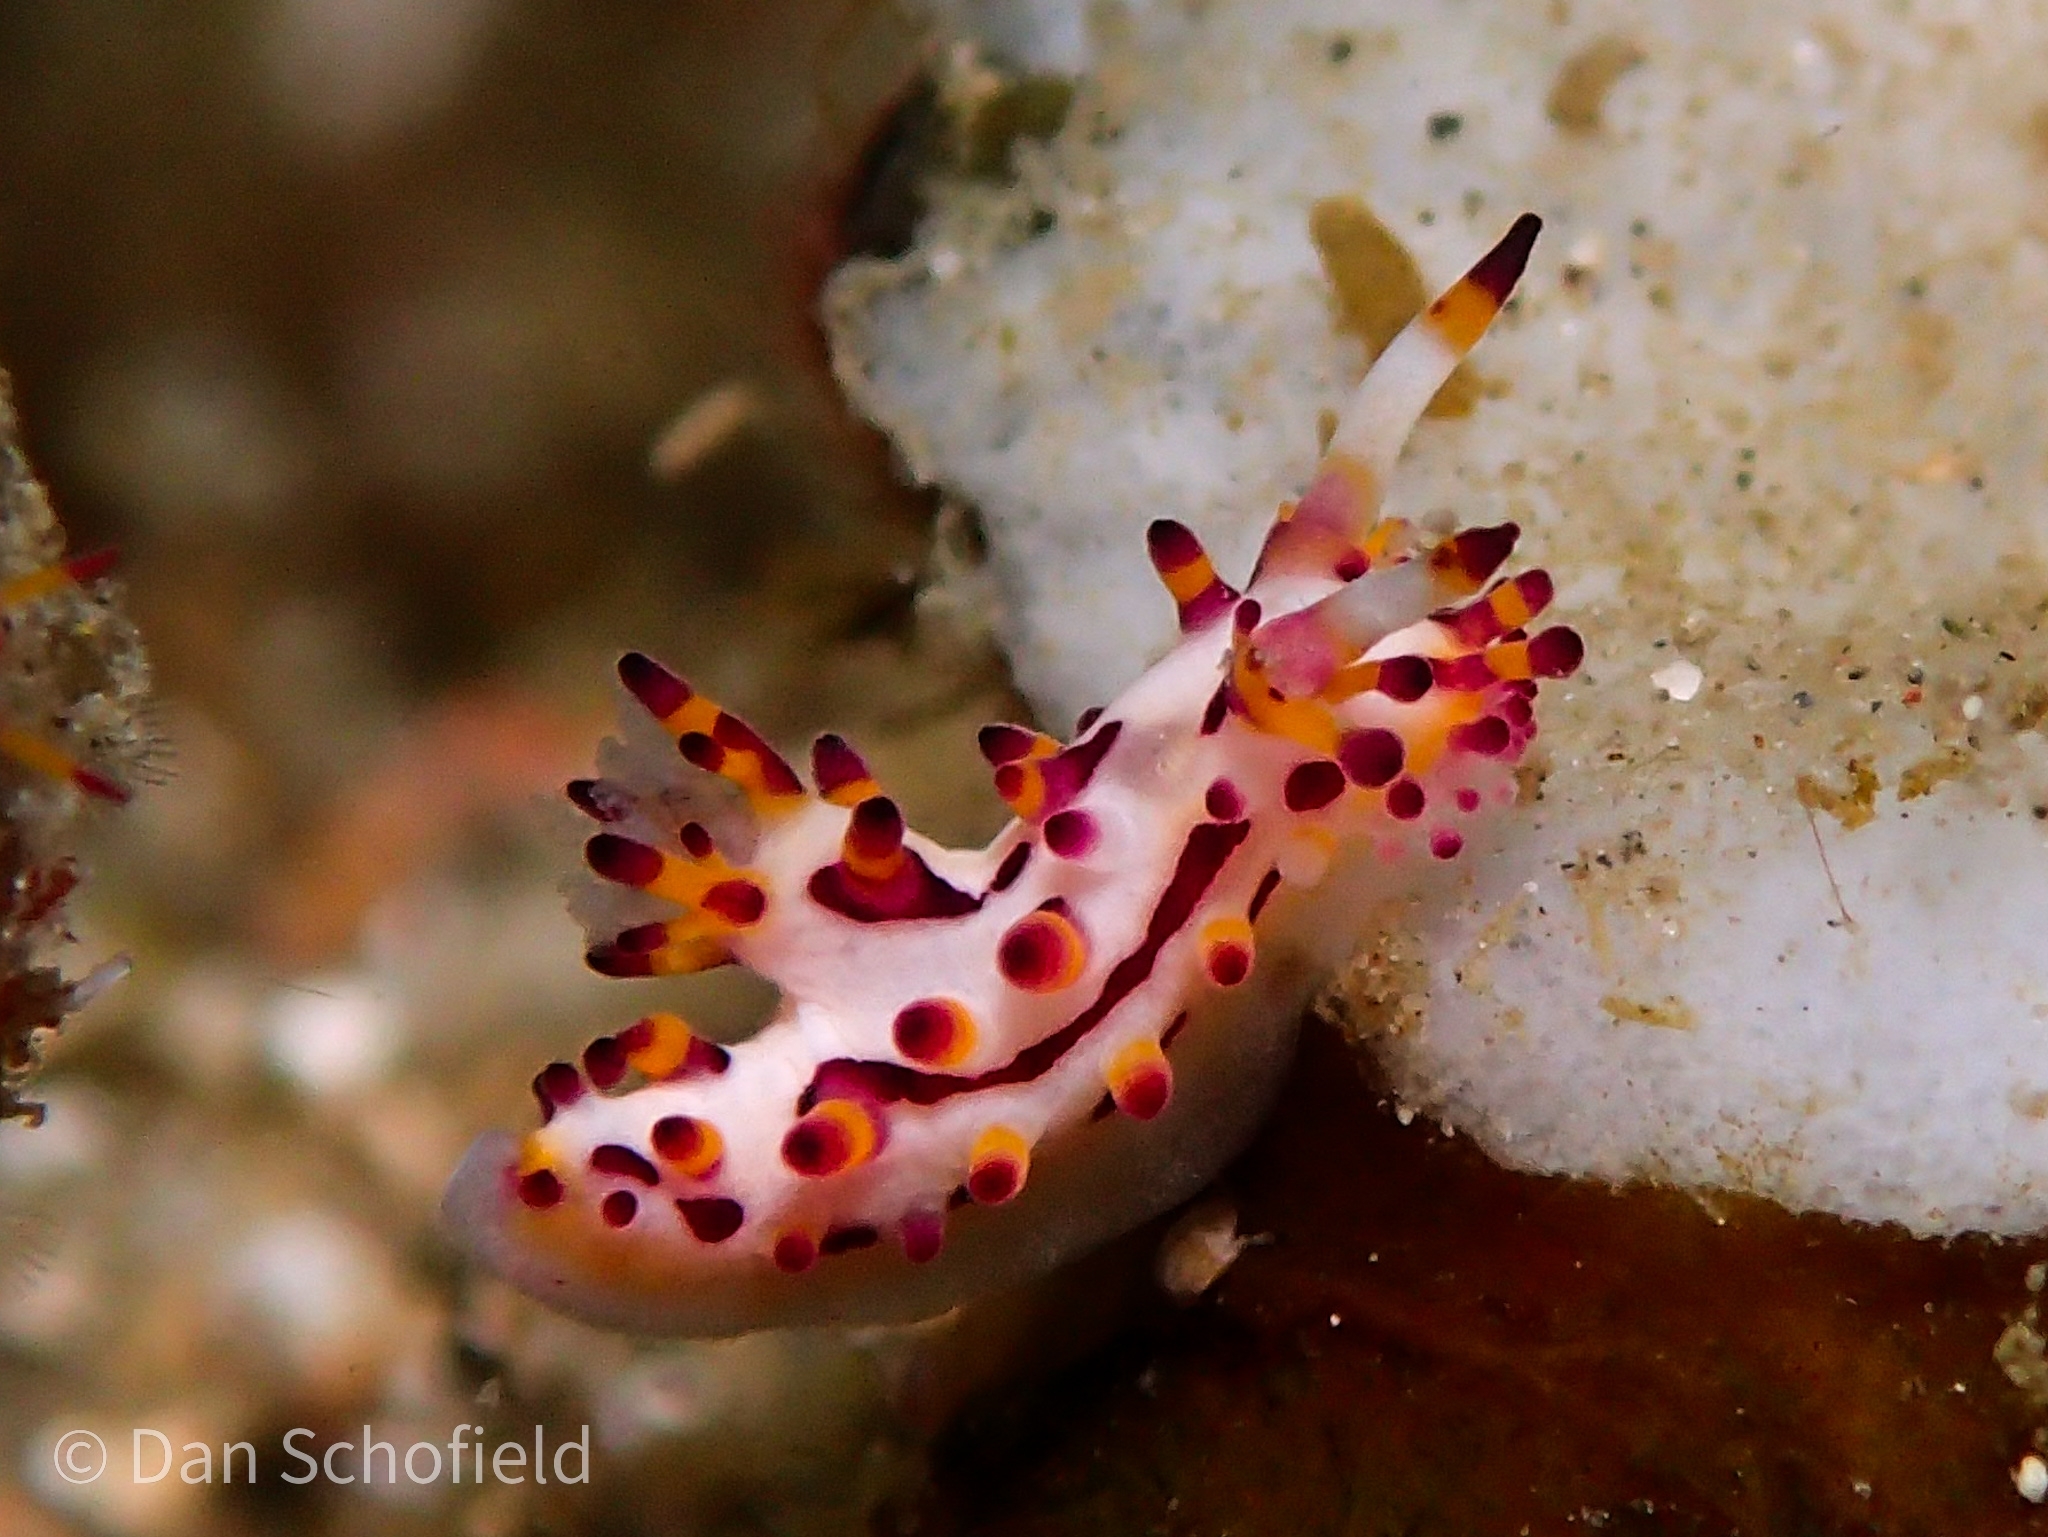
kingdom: Animalia
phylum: Mollusca
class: Gastropoda
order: Nudibranchia
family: Aegiridae
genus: Aegires
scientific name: Aegires villosus
